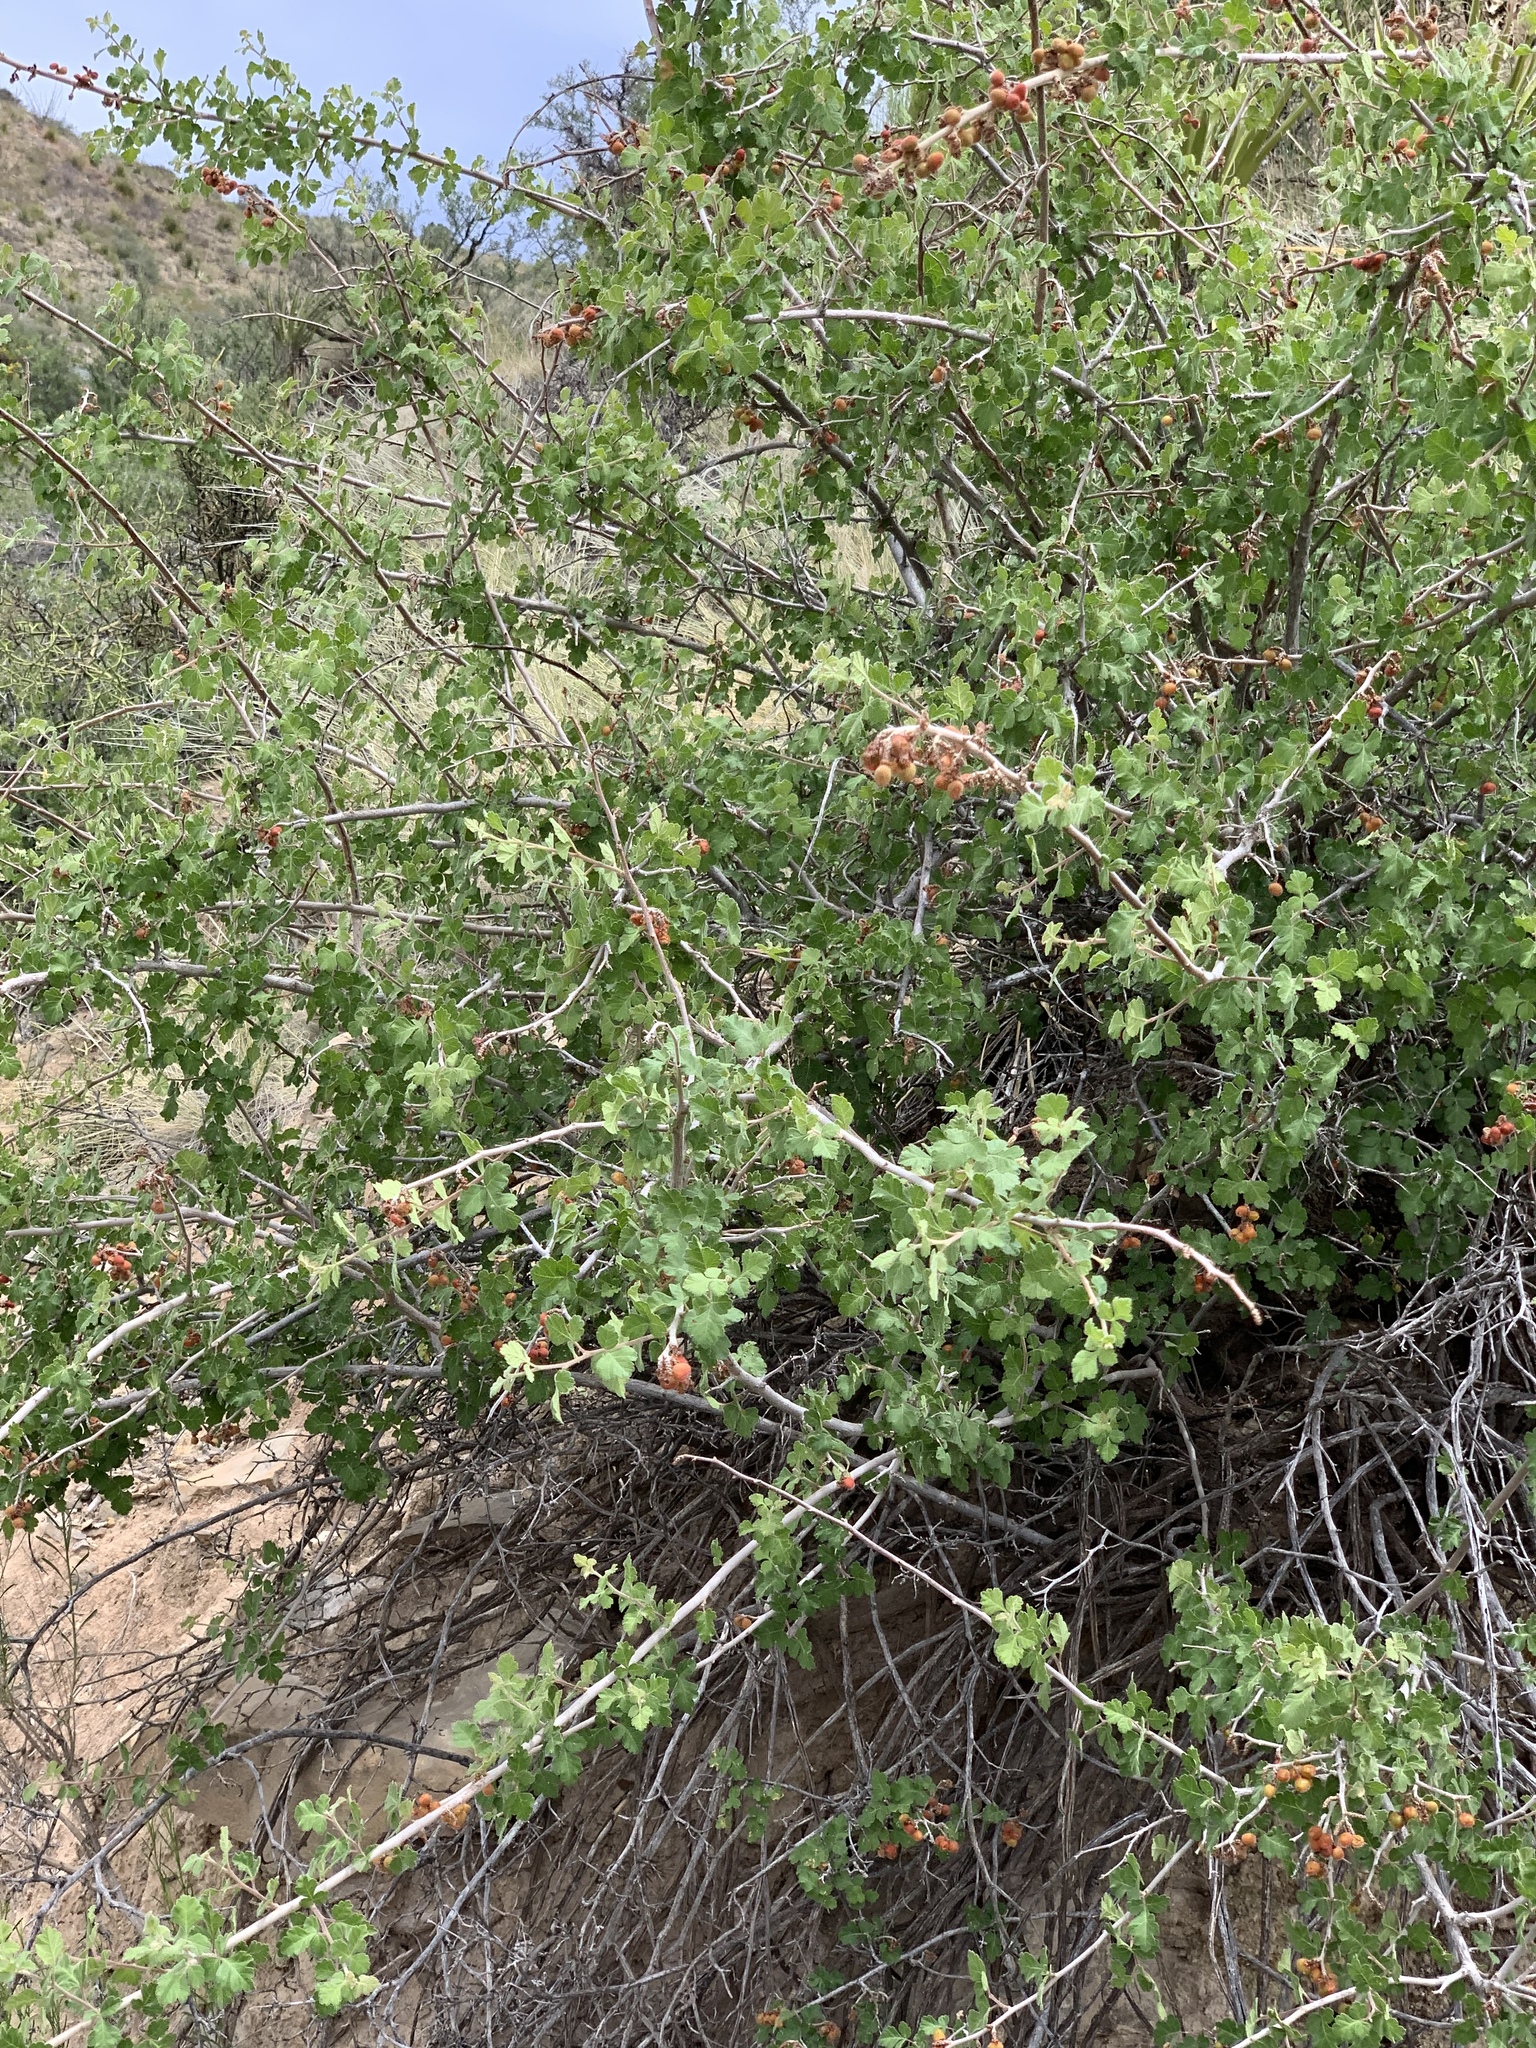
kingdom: Plantae
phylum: Tracheophyta
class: Magnoliopsida
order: Sapindales
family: Anacardiaceae
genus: Rhus
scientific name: Rhus aromatica
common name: Aromatic sumac
